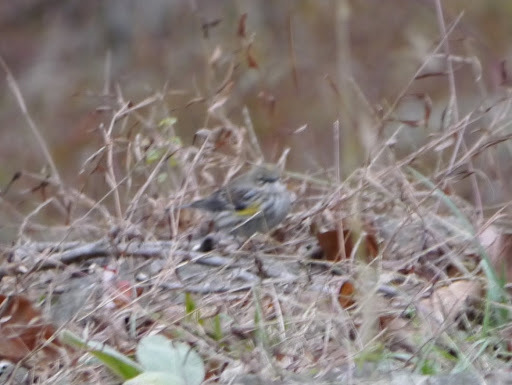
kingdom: Animalia
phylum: Chordata
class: Aves
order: Passeriformes
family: Parulidae
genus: Setophaga
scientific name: Setophaga coronata
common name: Myrtle warbler
